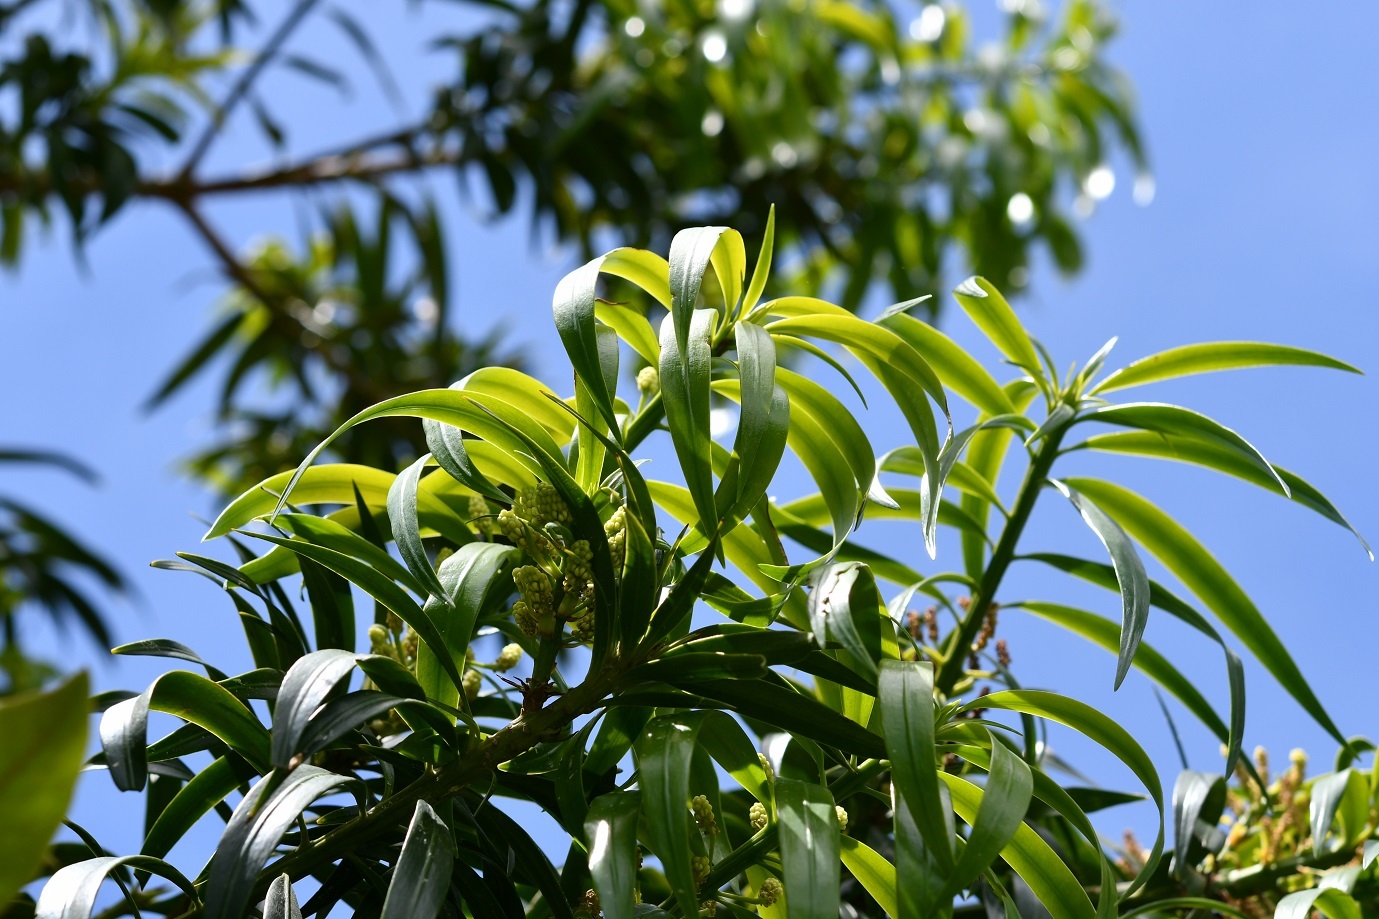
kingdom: Plantae
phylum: Tracheophyta
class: Pinopsida
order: Pinales
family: Podocarpaceae
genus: Podocarpus
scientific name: Podocarpus matudae
